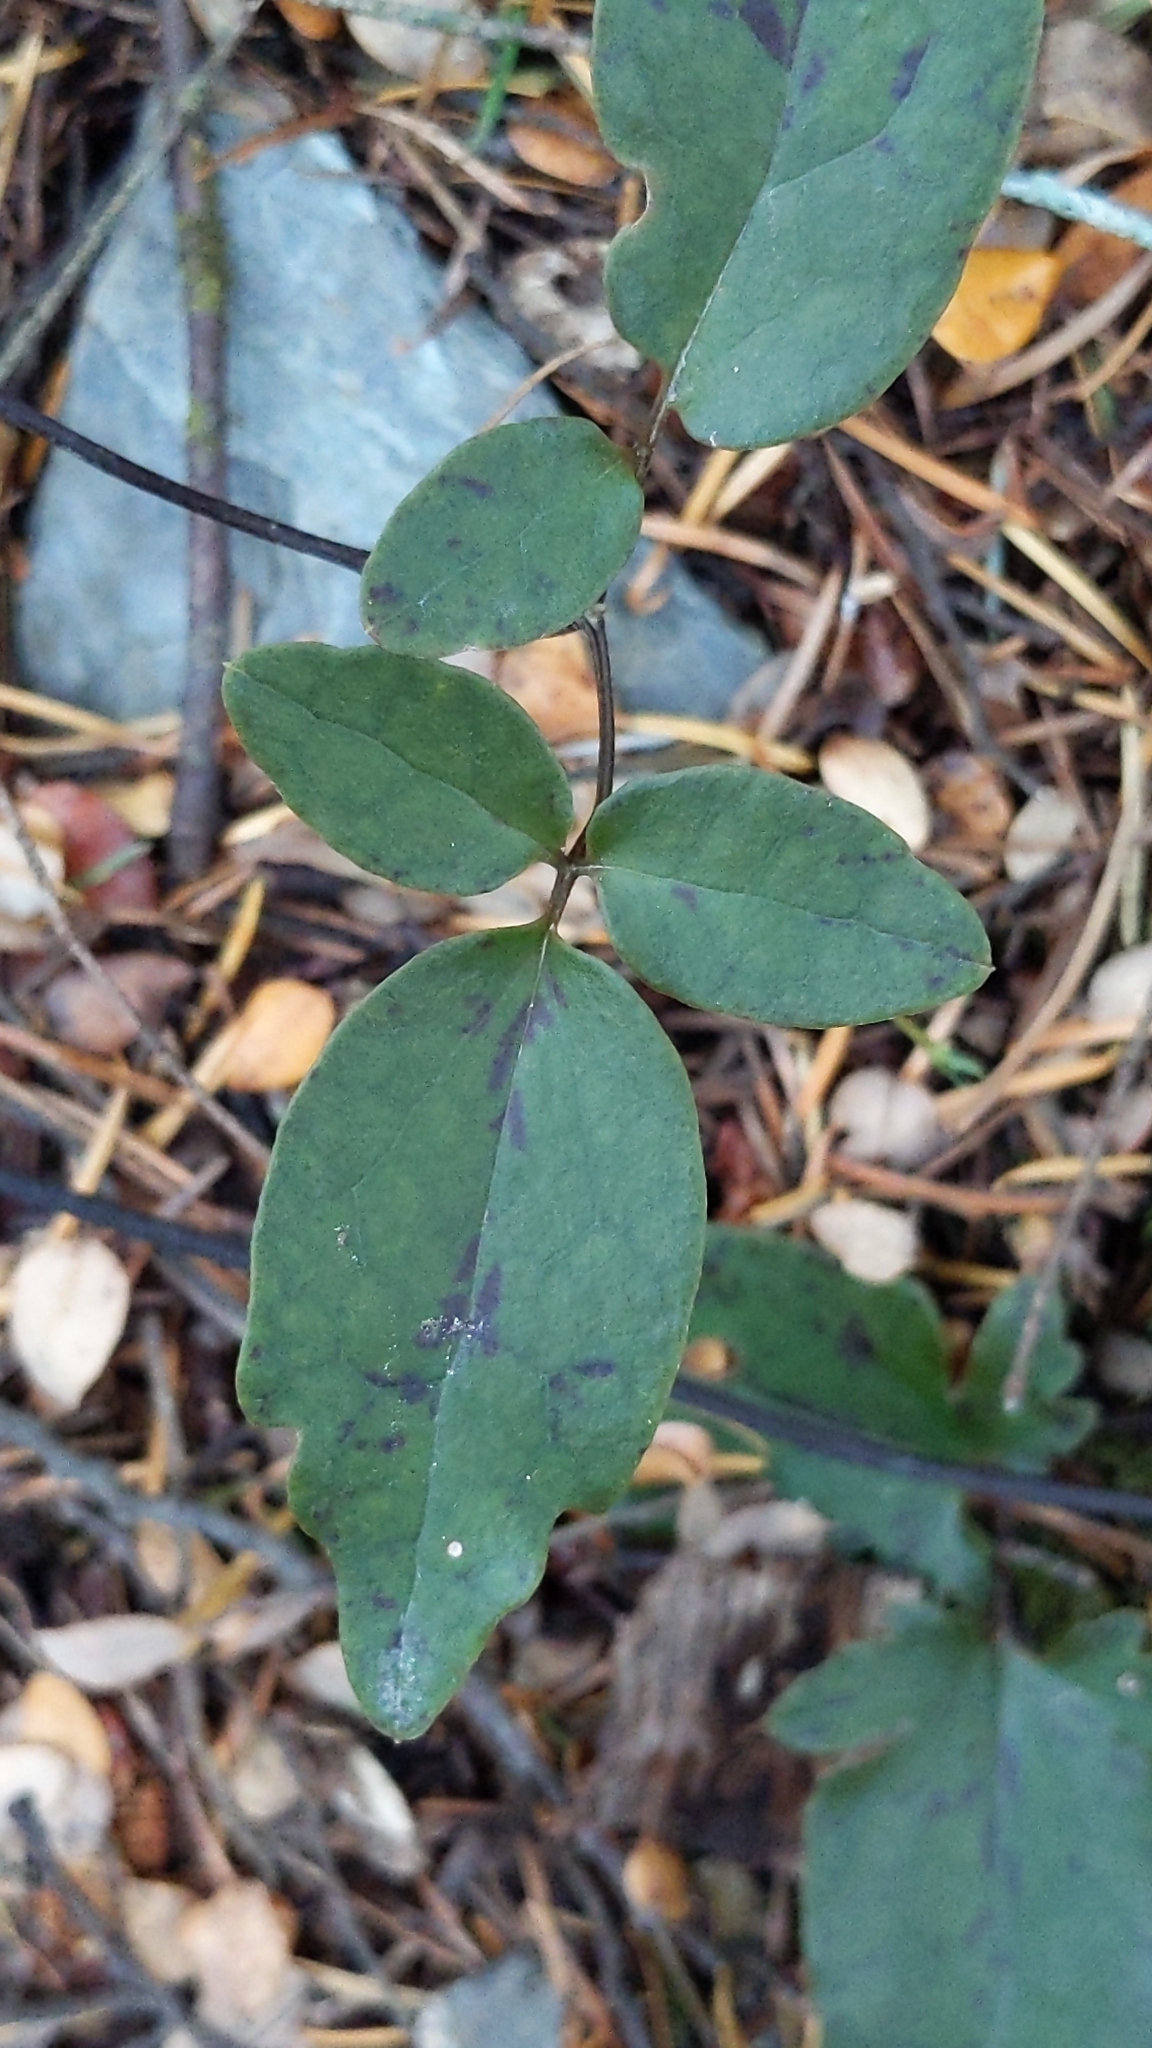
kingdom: Plantae
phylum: Tracheophyta
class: Magnoliopsida
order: Ranunculales
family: Ranunculaceae
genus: Clematis
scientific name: Clematis paniculata
